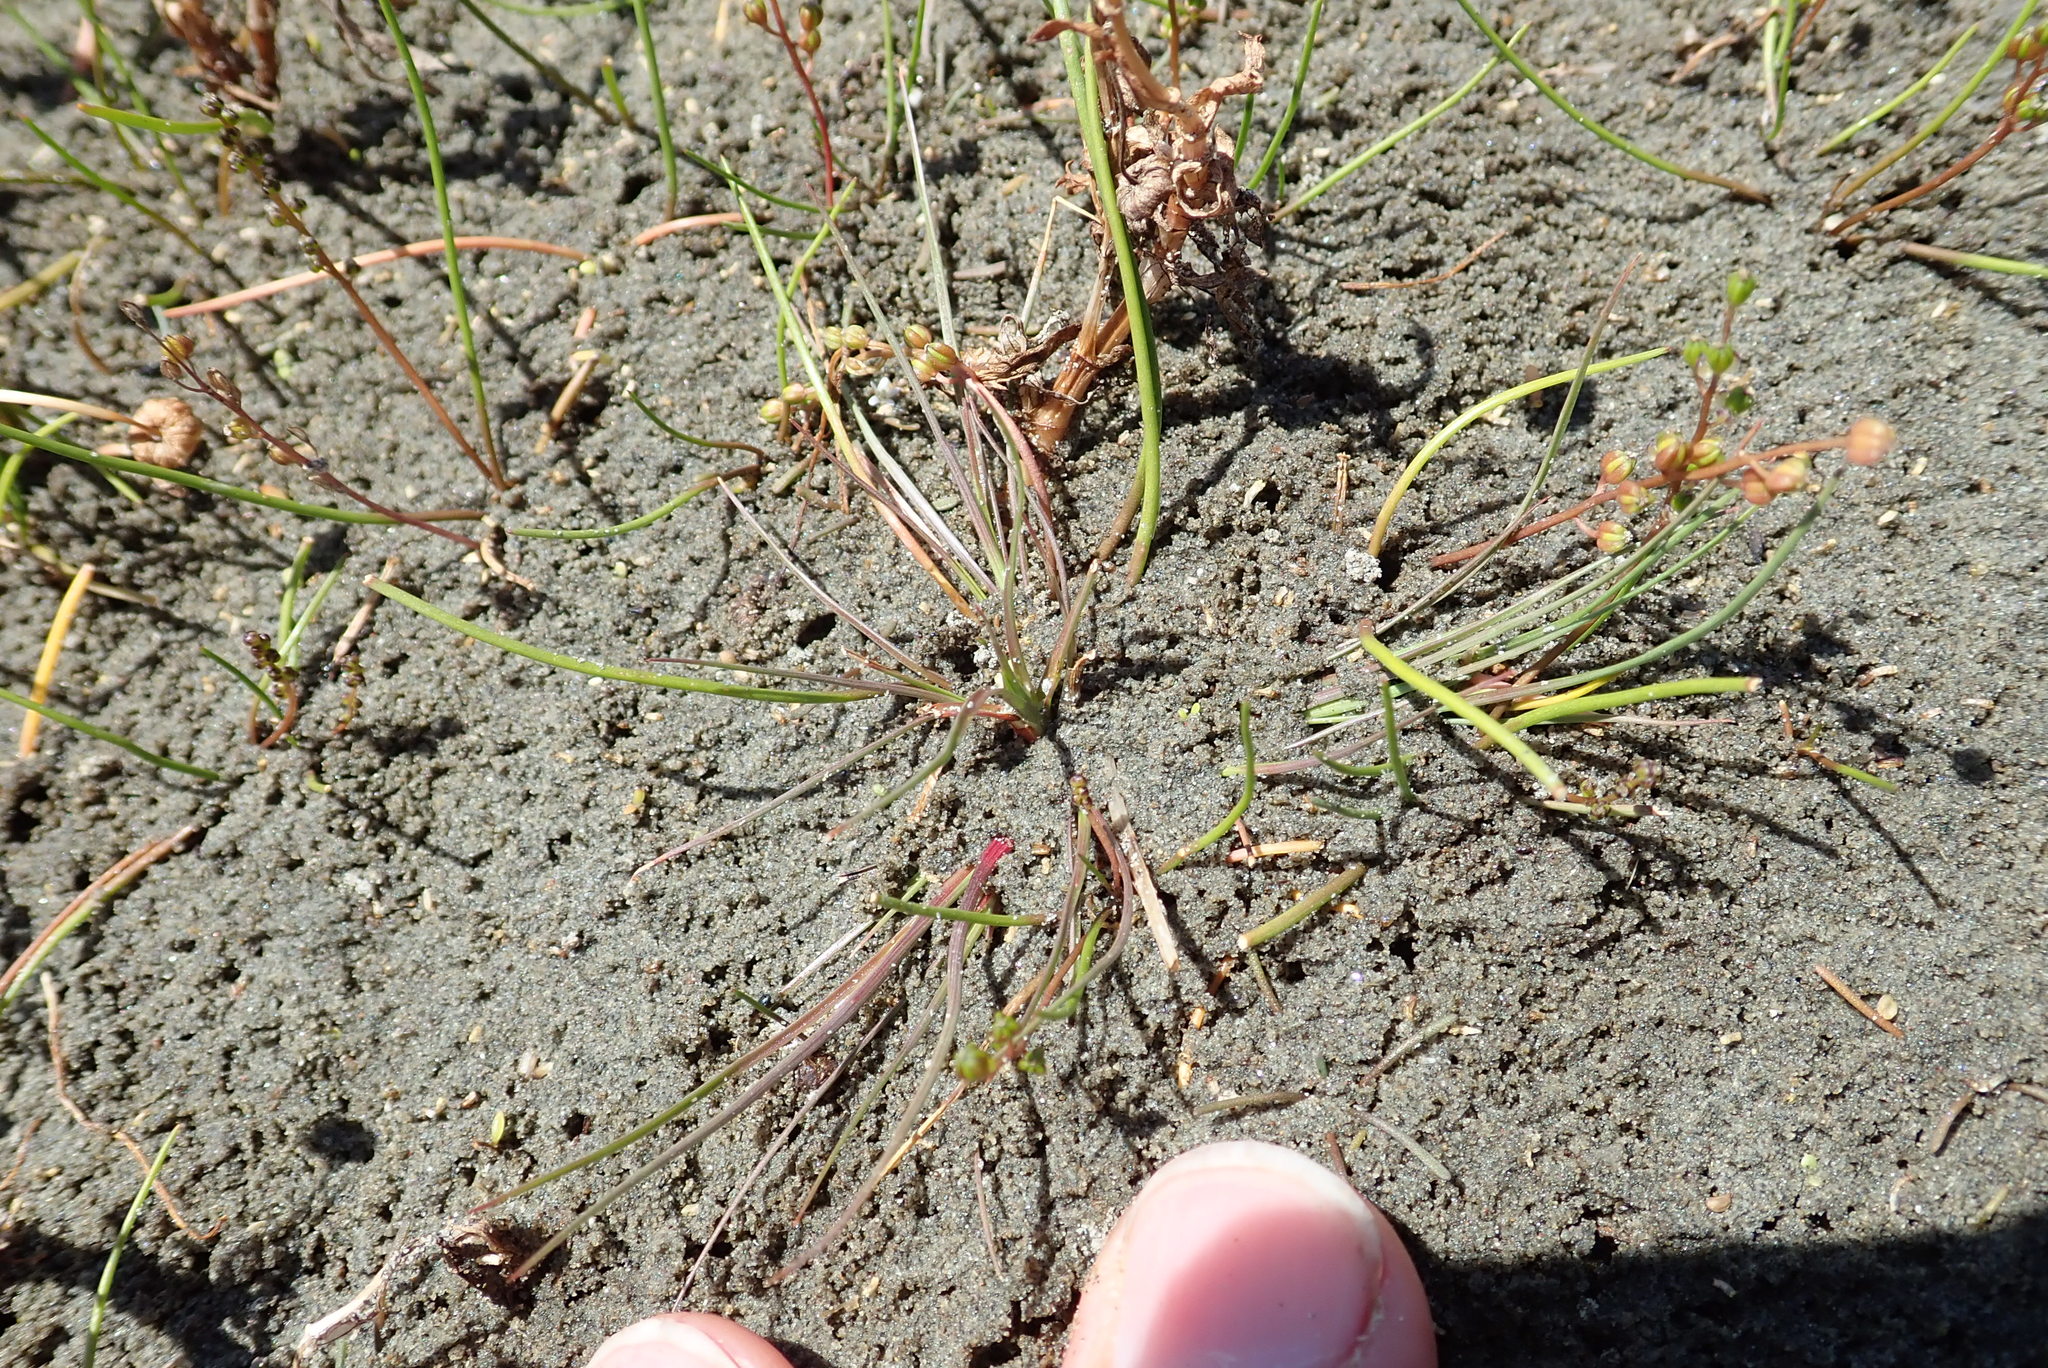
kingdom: Plantae
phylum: Tracheophyta
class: Liliopsida
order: Alismatales
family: Juncaginaceae
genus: Triglochin
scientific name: Triglochin striata
